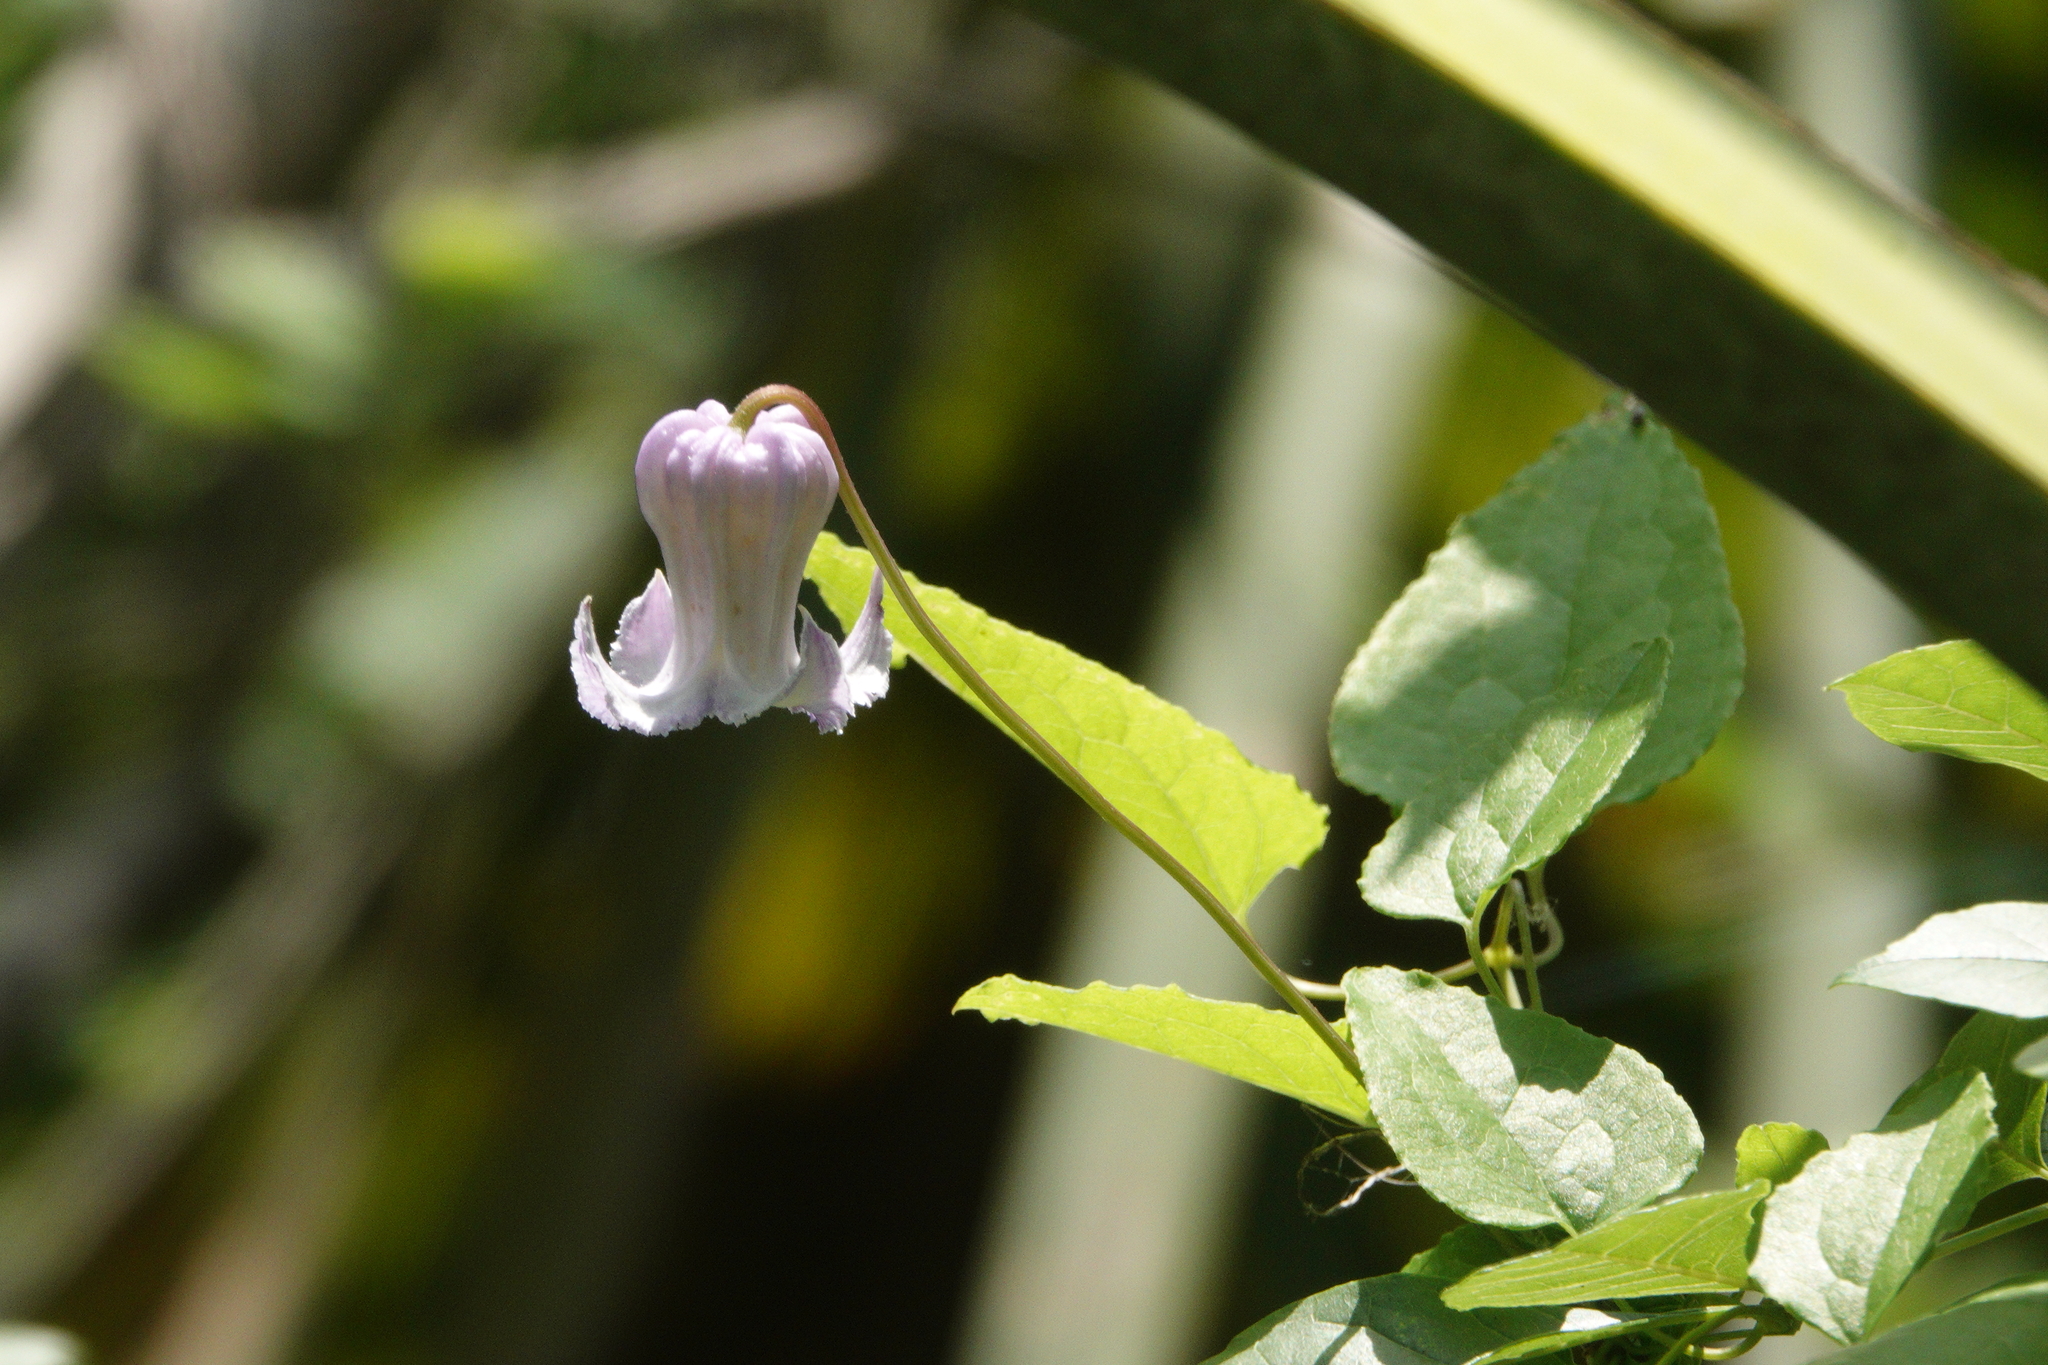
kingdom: Plantae
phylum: Tracheophyta
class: Magnoliopsida
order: Ranunculales
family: Ranunculaceae
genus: Clematis
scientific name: Clematis crispa
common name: Curly clematis
